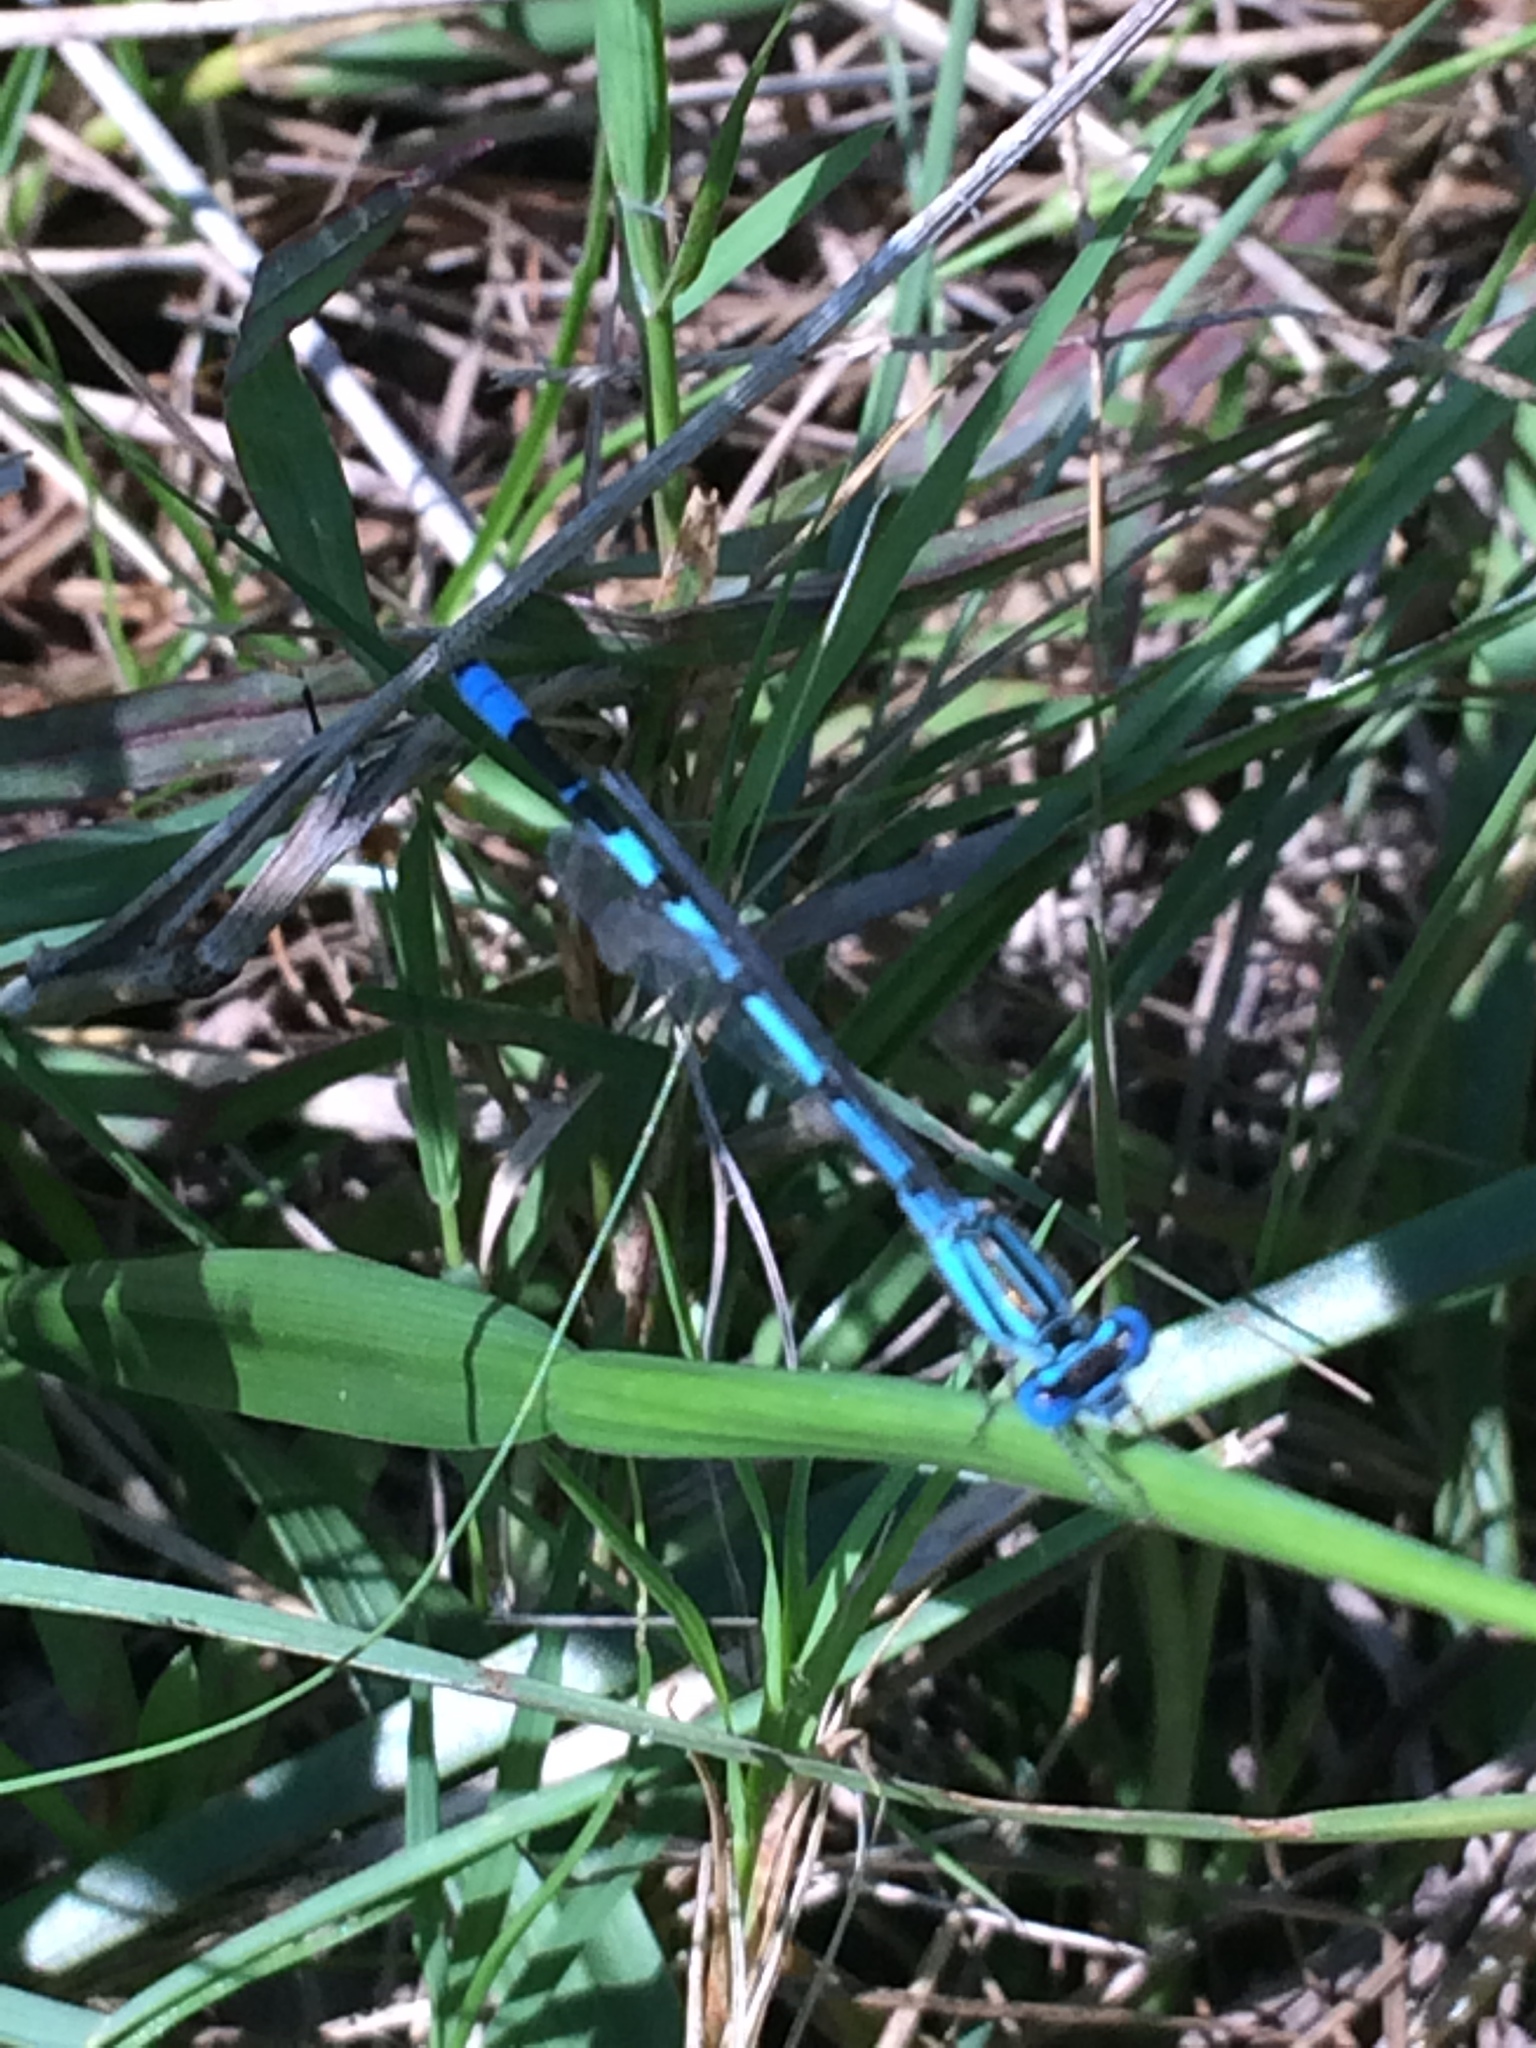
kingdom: Animalia
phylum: Arthropoda
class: Insecta
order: Odonata
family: Coenagrionidae
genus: Enallagma
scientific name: Enallagma durum
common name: Big bluet
